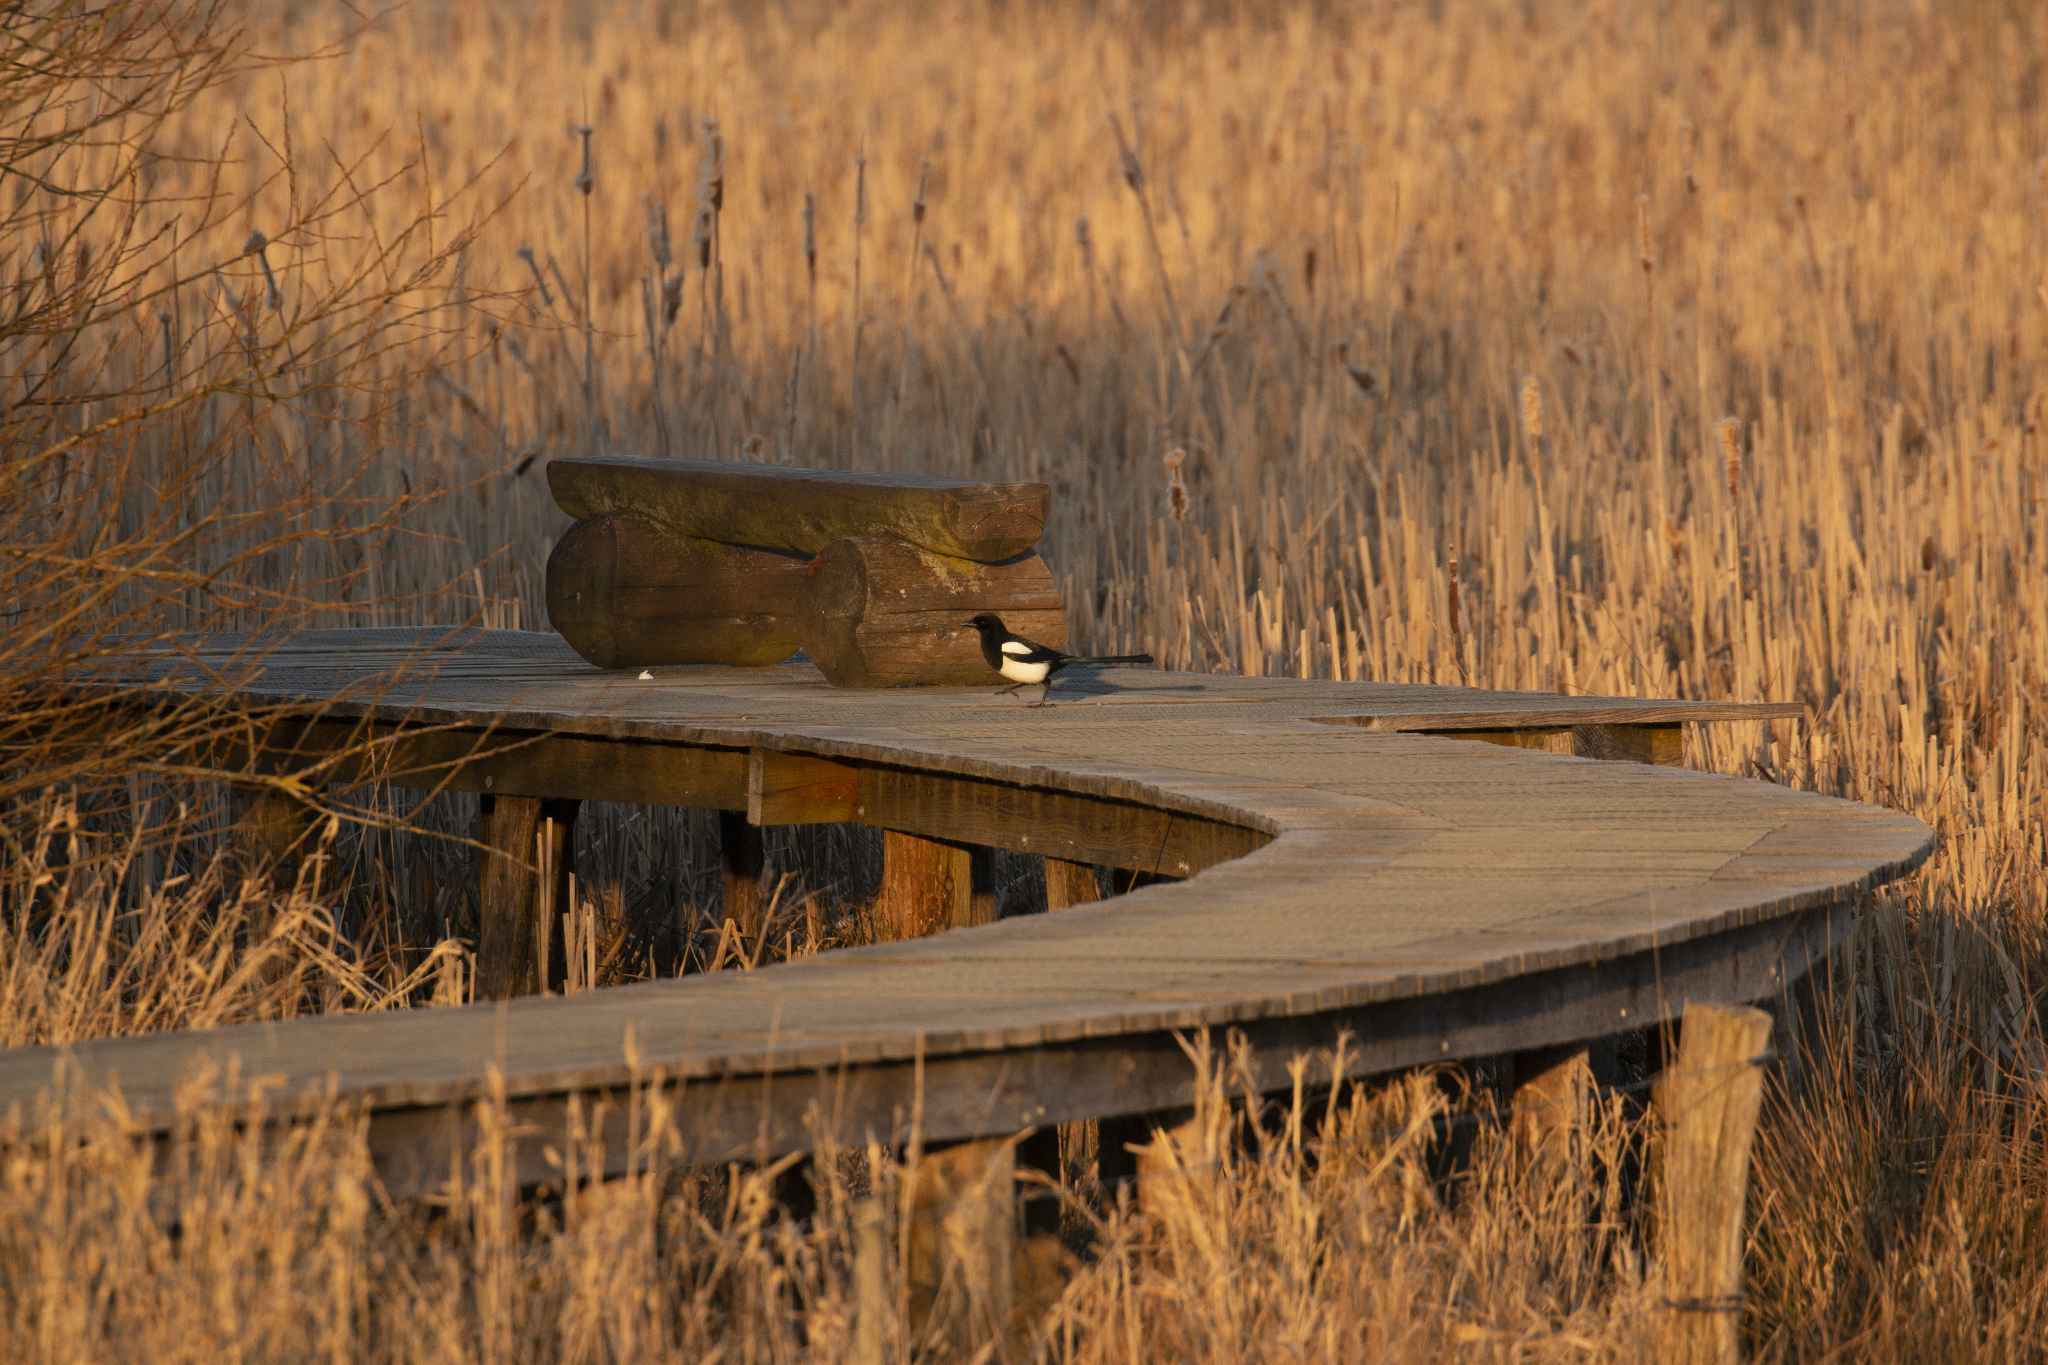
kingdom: Animalia
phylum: Chordata
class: Aves
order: Passeriformes
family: Corvidae
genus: Pica
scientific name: Pica pica
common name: Eurasian magpie
